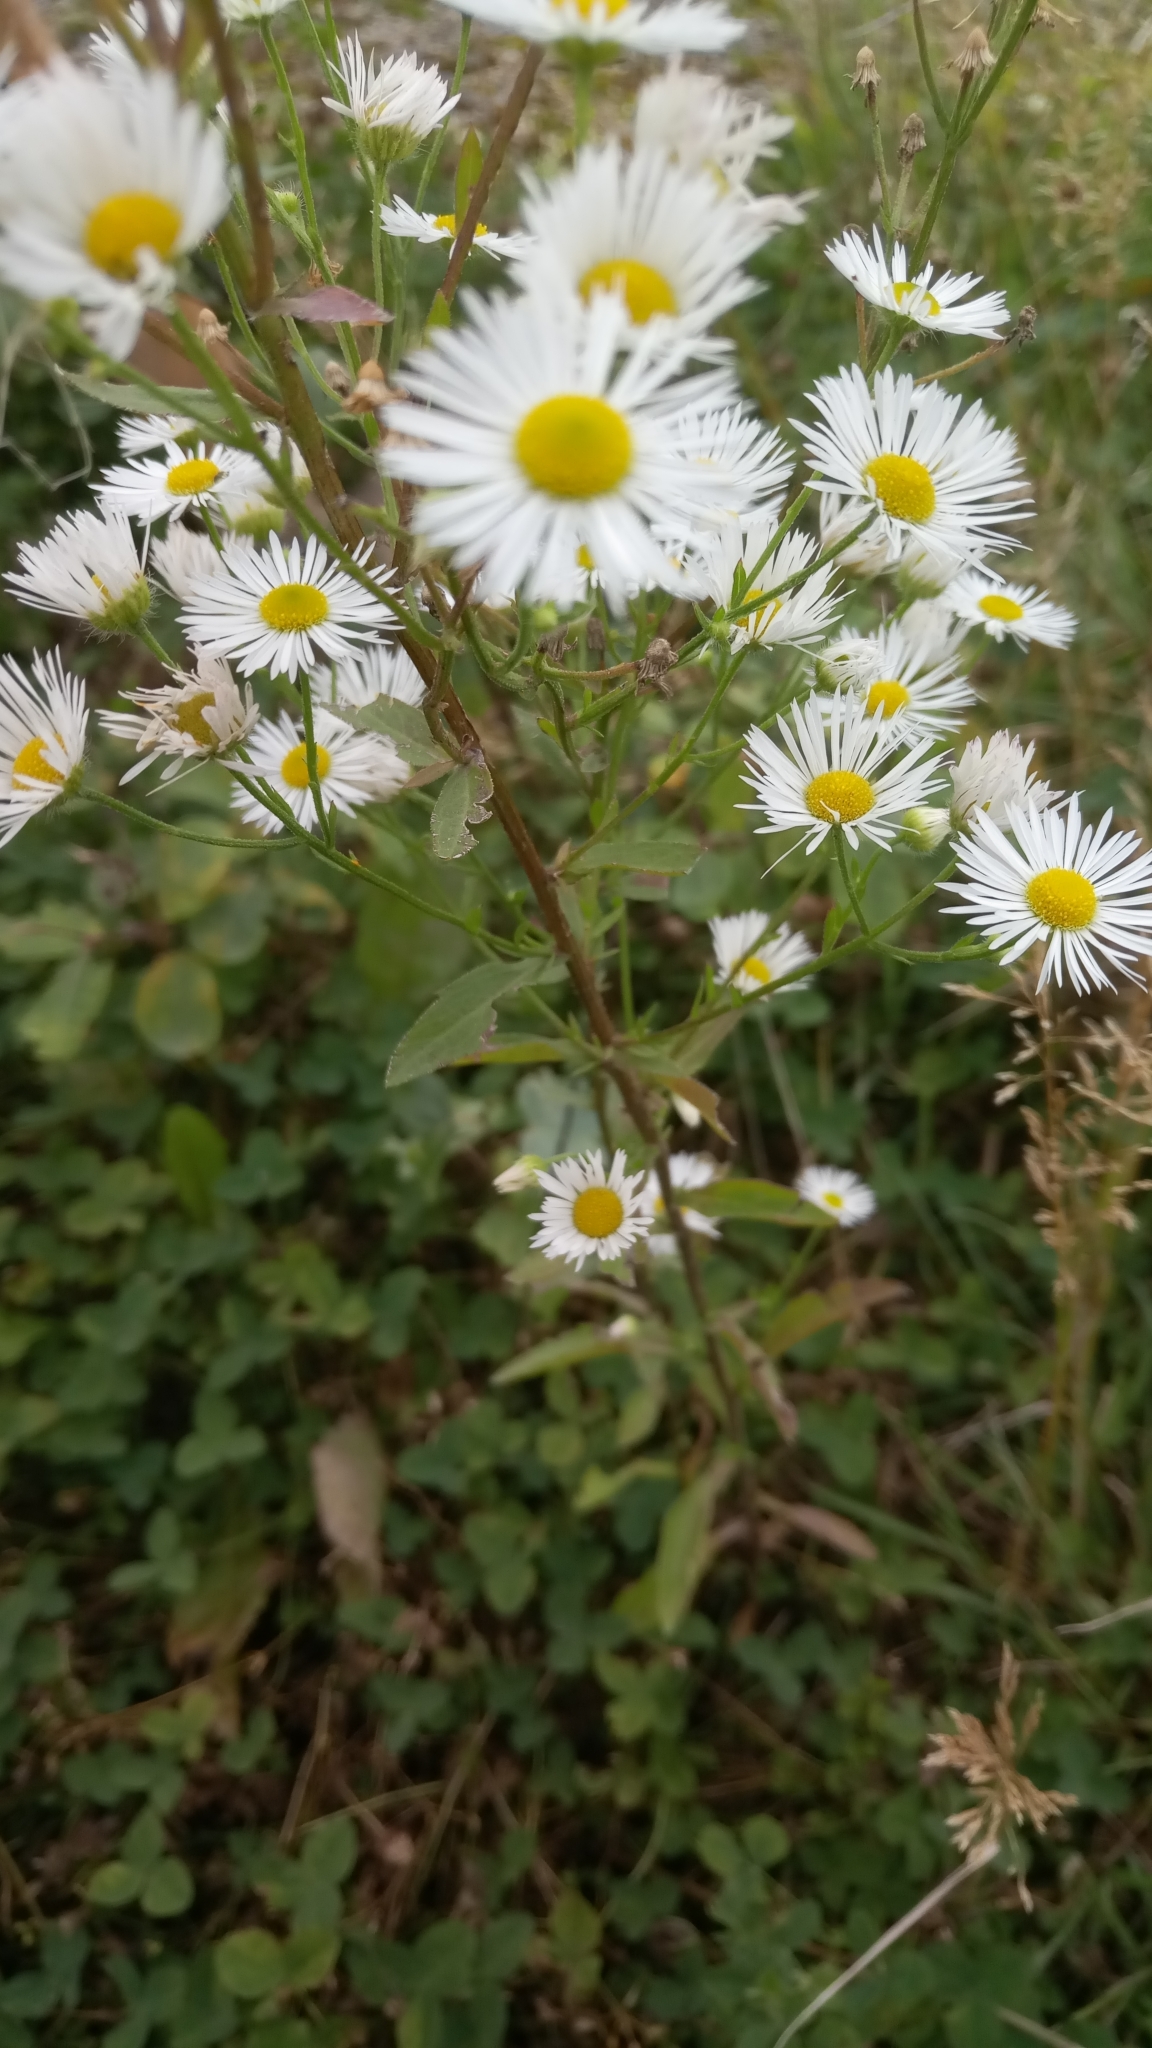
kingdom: Plantae
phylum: Tracheophyta
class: Magnoliopsida
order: Asterales
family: Asteraceae
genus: Erigeron
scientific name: Erigeron annuus
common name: Tall fleabane
